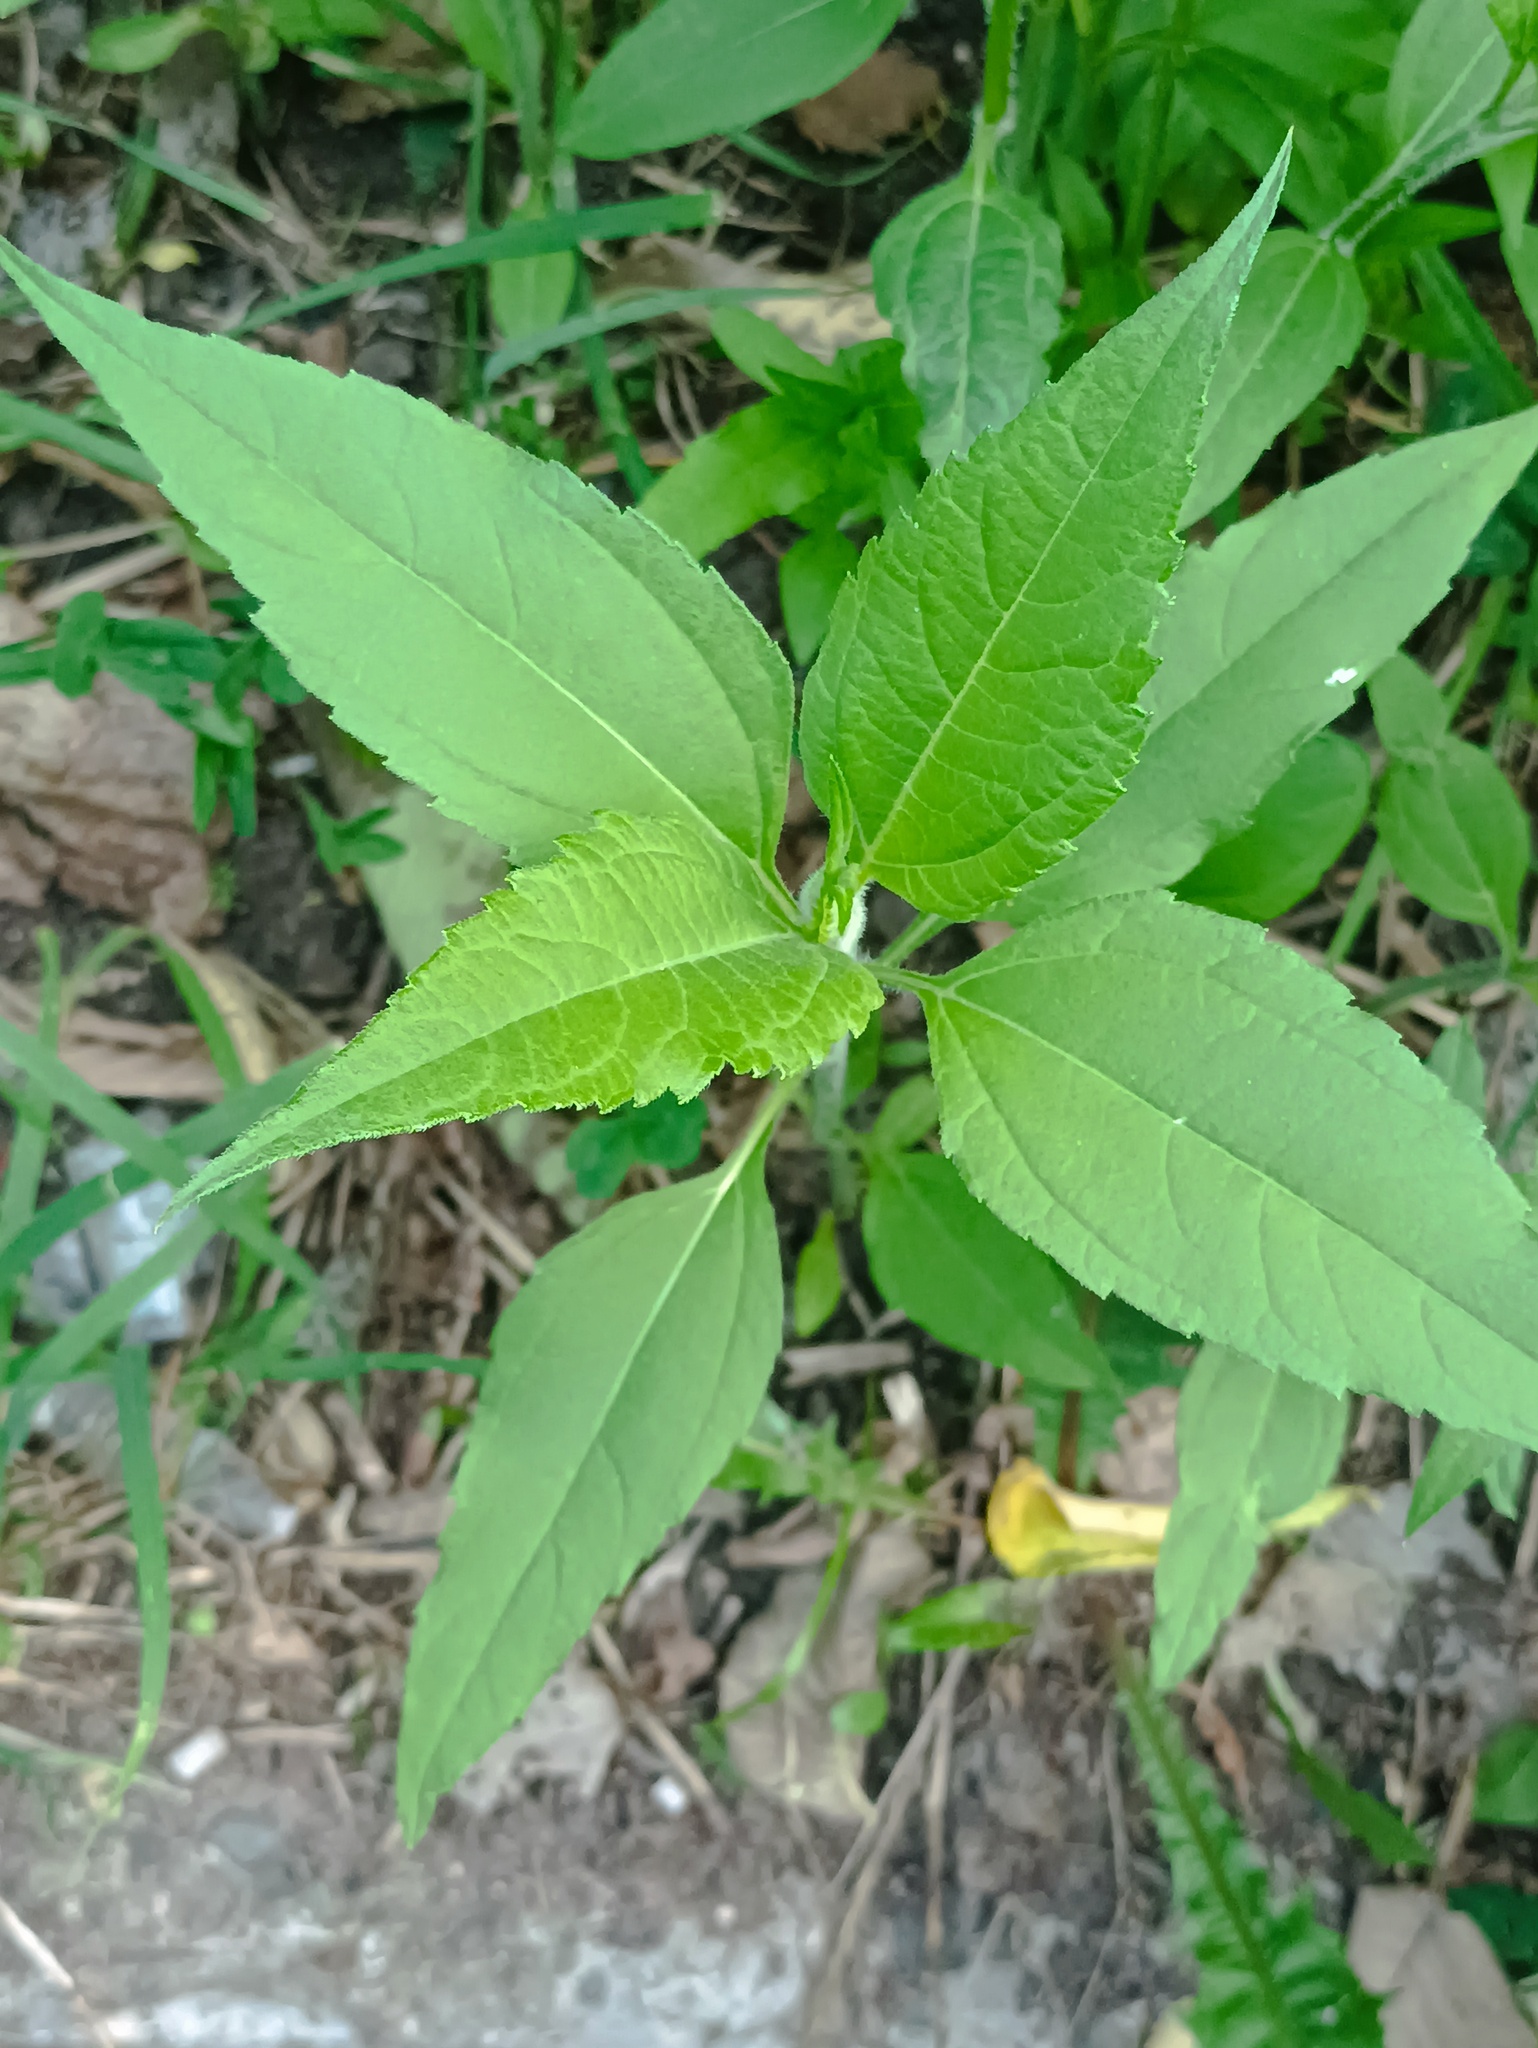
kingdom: Plantae
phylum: Tracheophyta
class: Magnoliopsida
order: Asterales
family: Asteraceae
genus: Helianthus
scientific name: Helianthus tuberosus
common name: Jerusalem artichoke
